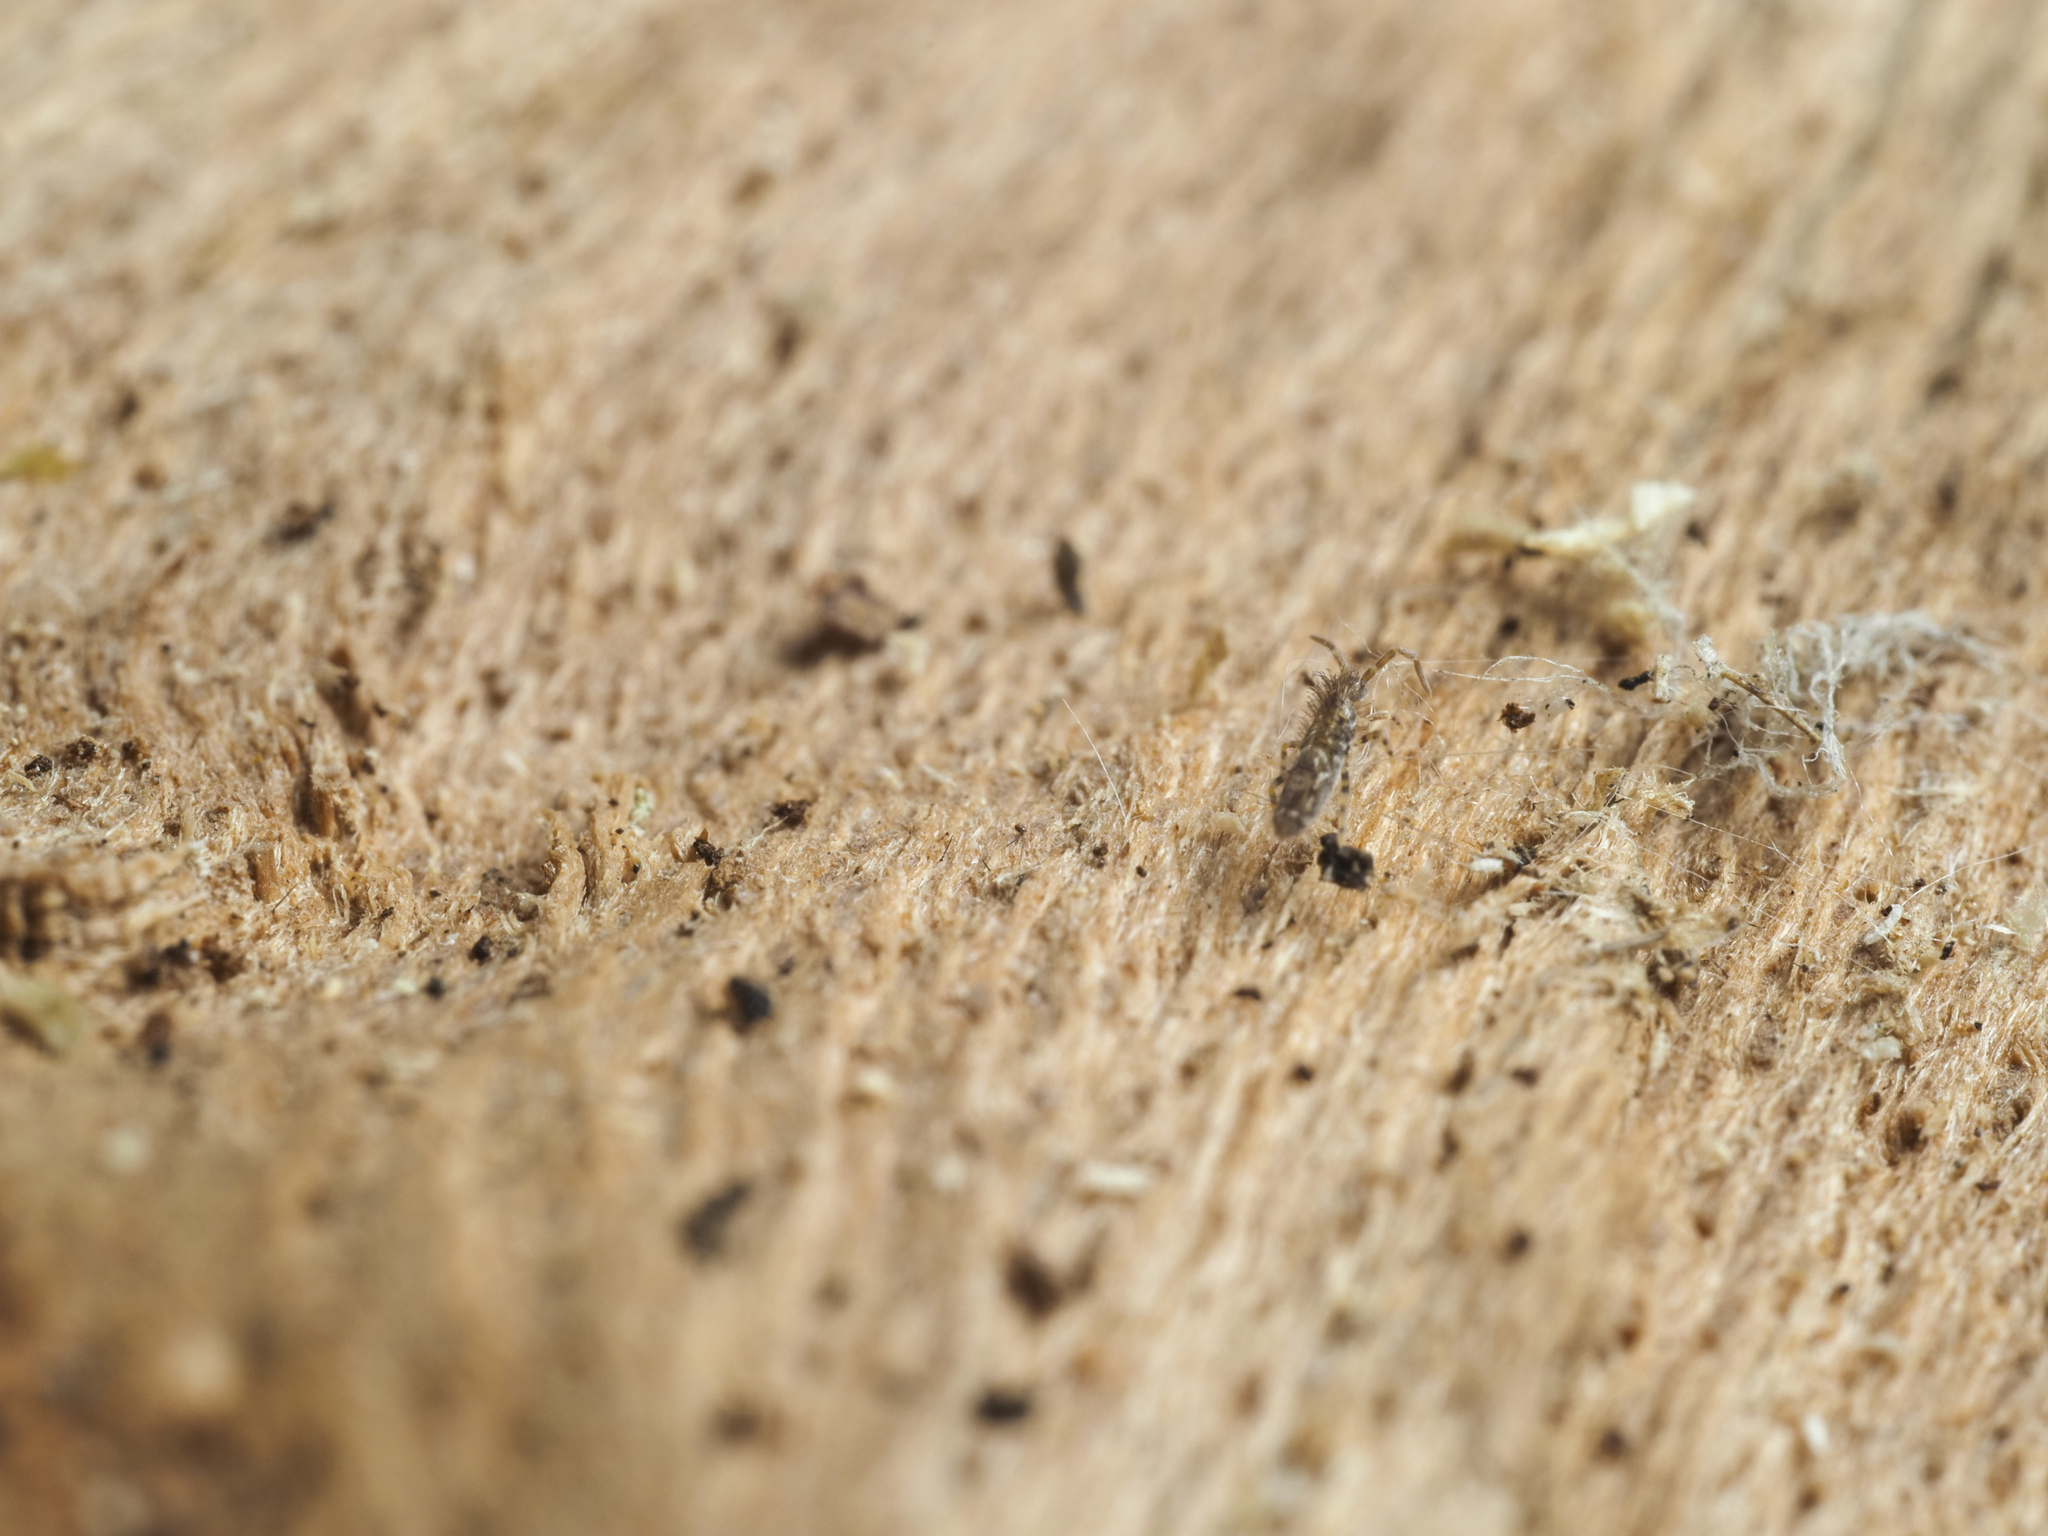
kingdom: Animalia
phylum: Arthropoda
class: Collembola
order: Entomobryomorpha
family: Entomobryidae
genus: Entomobrya
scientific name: Entomobrya dorsalis
